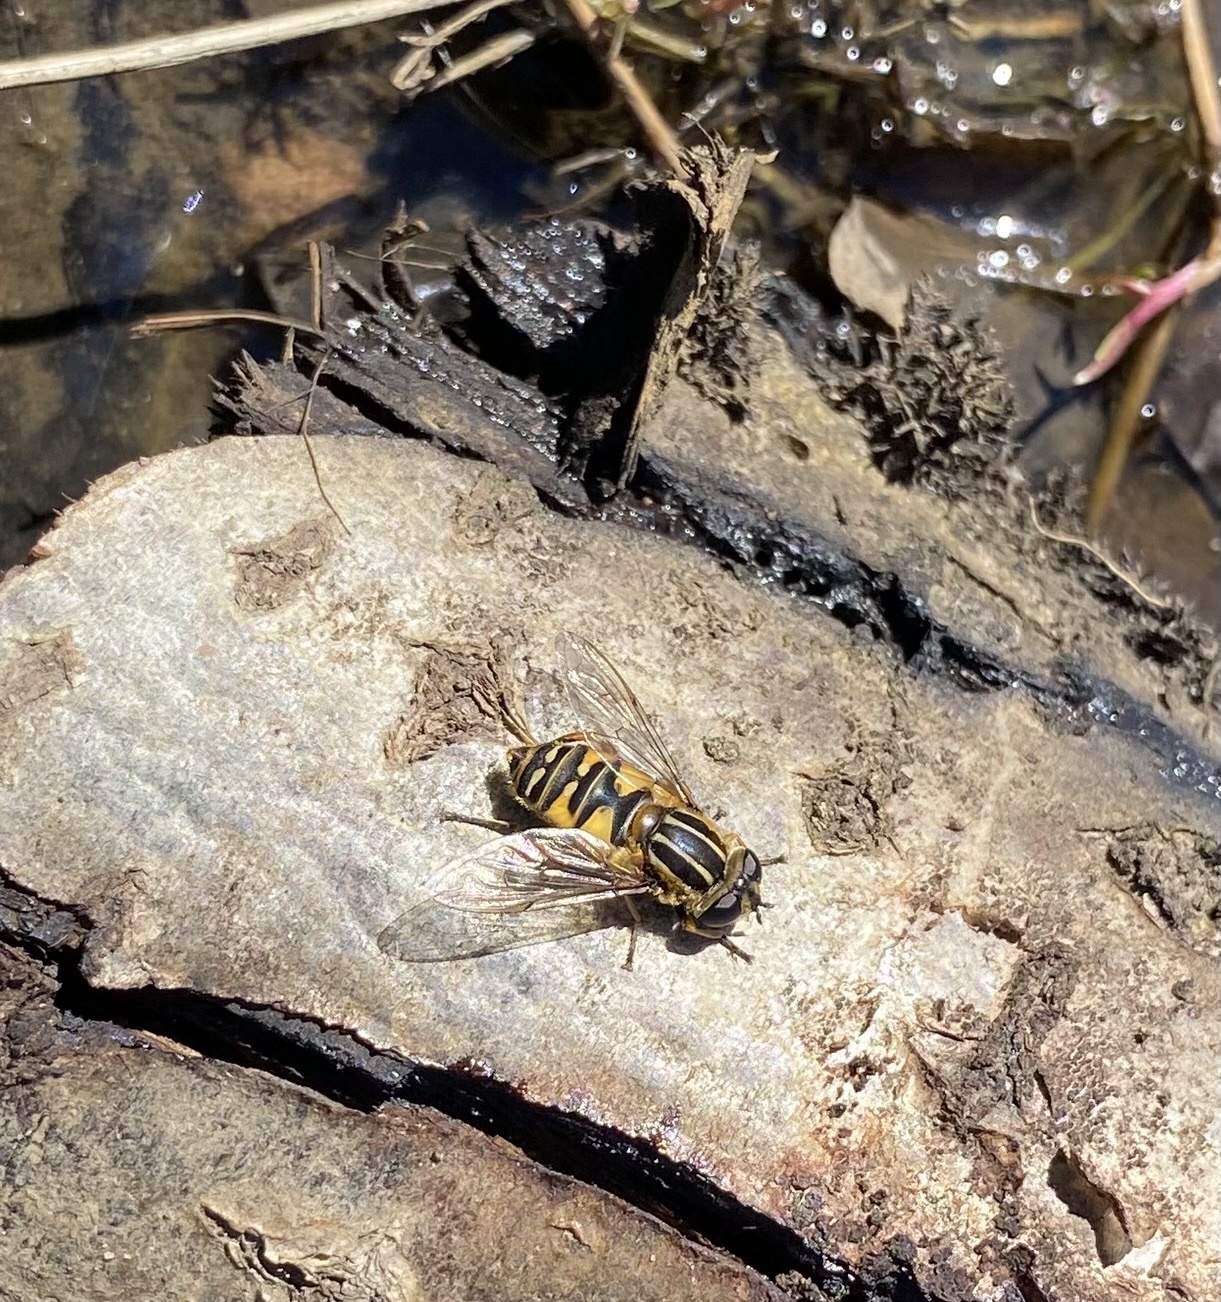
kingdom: Animalia
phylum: Arthropoda
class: Insecta
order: Diptera
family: Syrphidae
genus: Helophilus
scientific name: Helophilus pendulus
